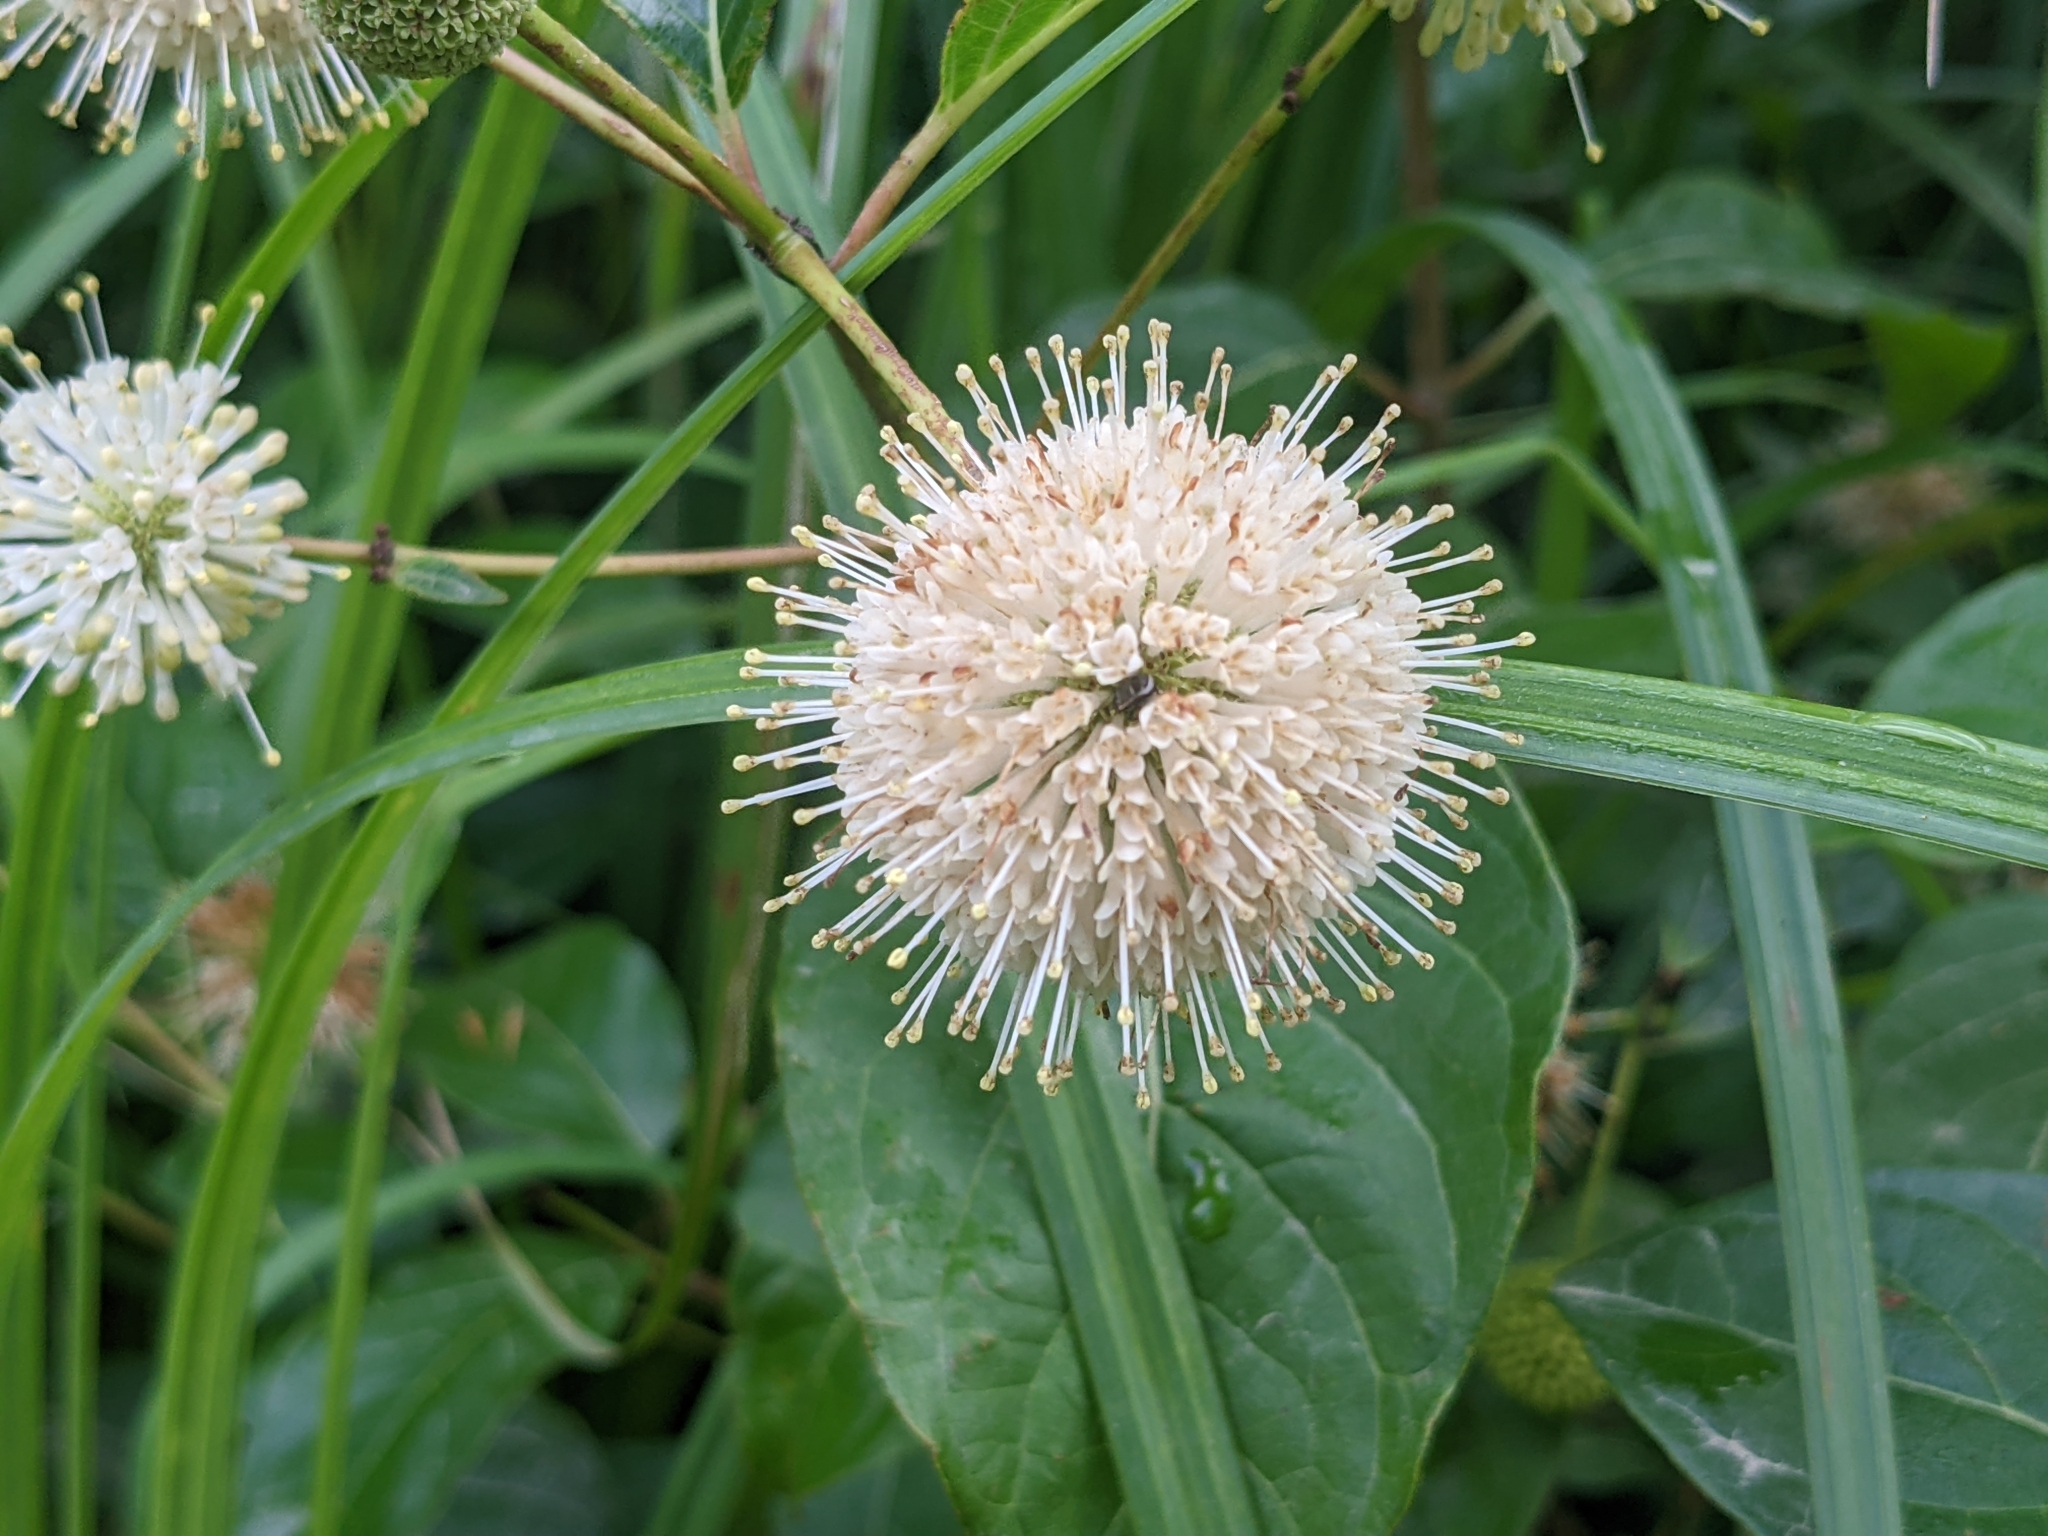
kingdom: Plantae
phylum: Tracheophyta
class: Magnoliopsida
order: Gentianales
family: Rubiaceae
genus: Cephalanthus
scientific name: Cephalanthus occidentalis
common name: Button-willow
